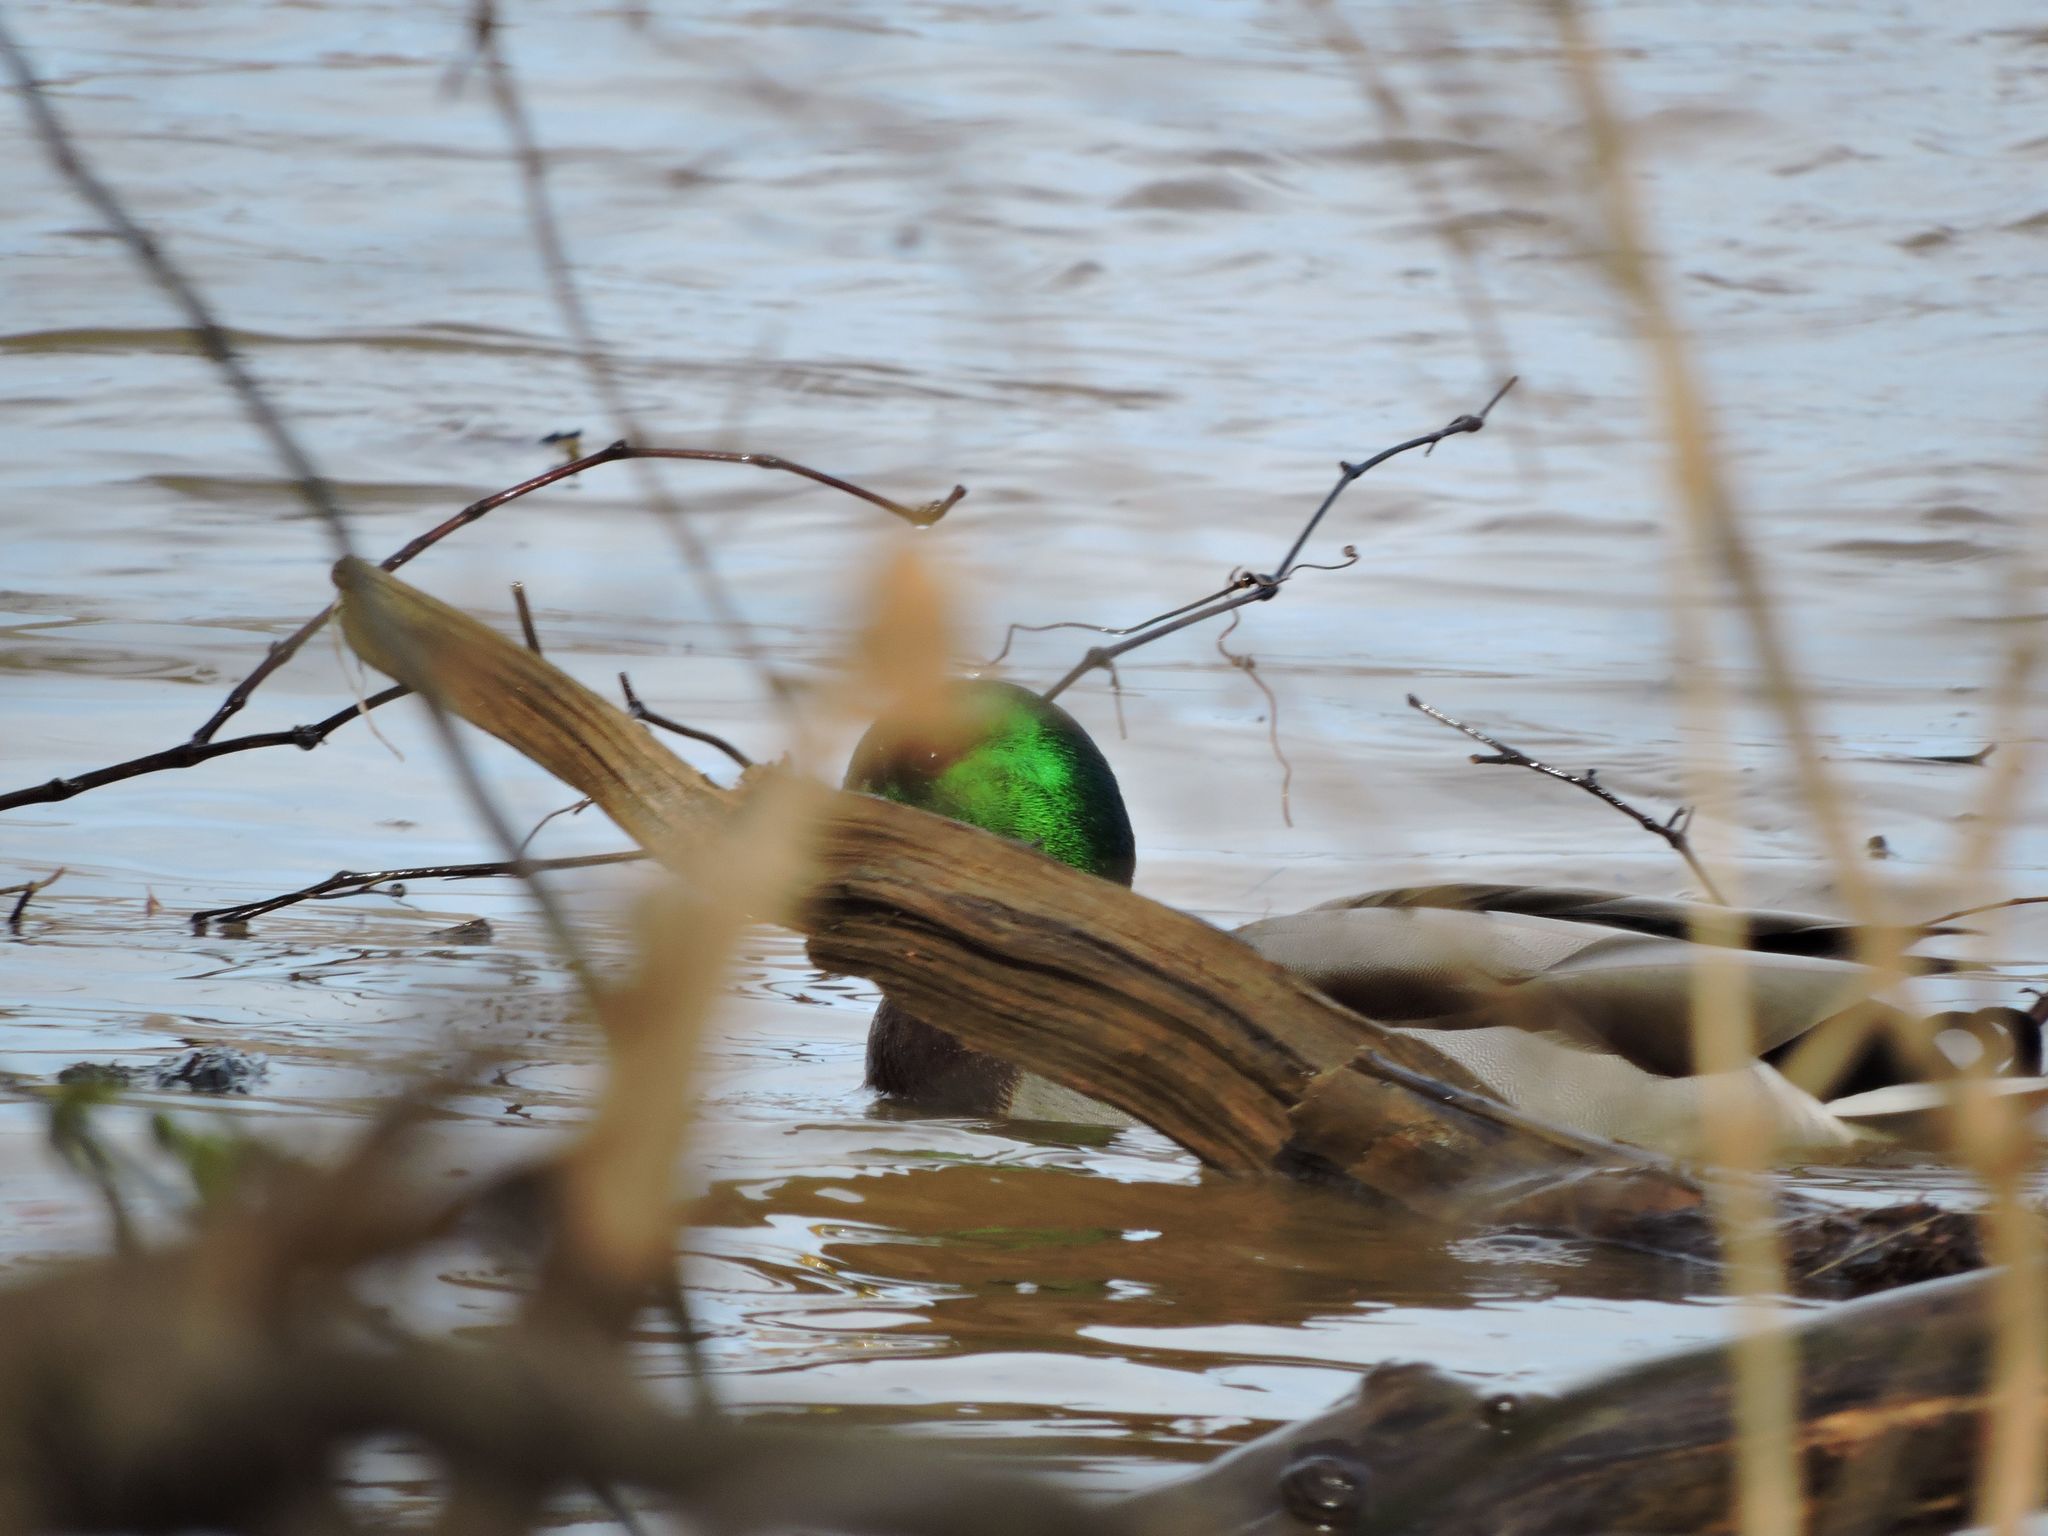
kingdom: Animalia
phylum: Chordata
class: Aves
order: Anseriformes
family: Anatidae
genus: Anas
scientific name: Anas platyrhynchos
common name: Mallard
